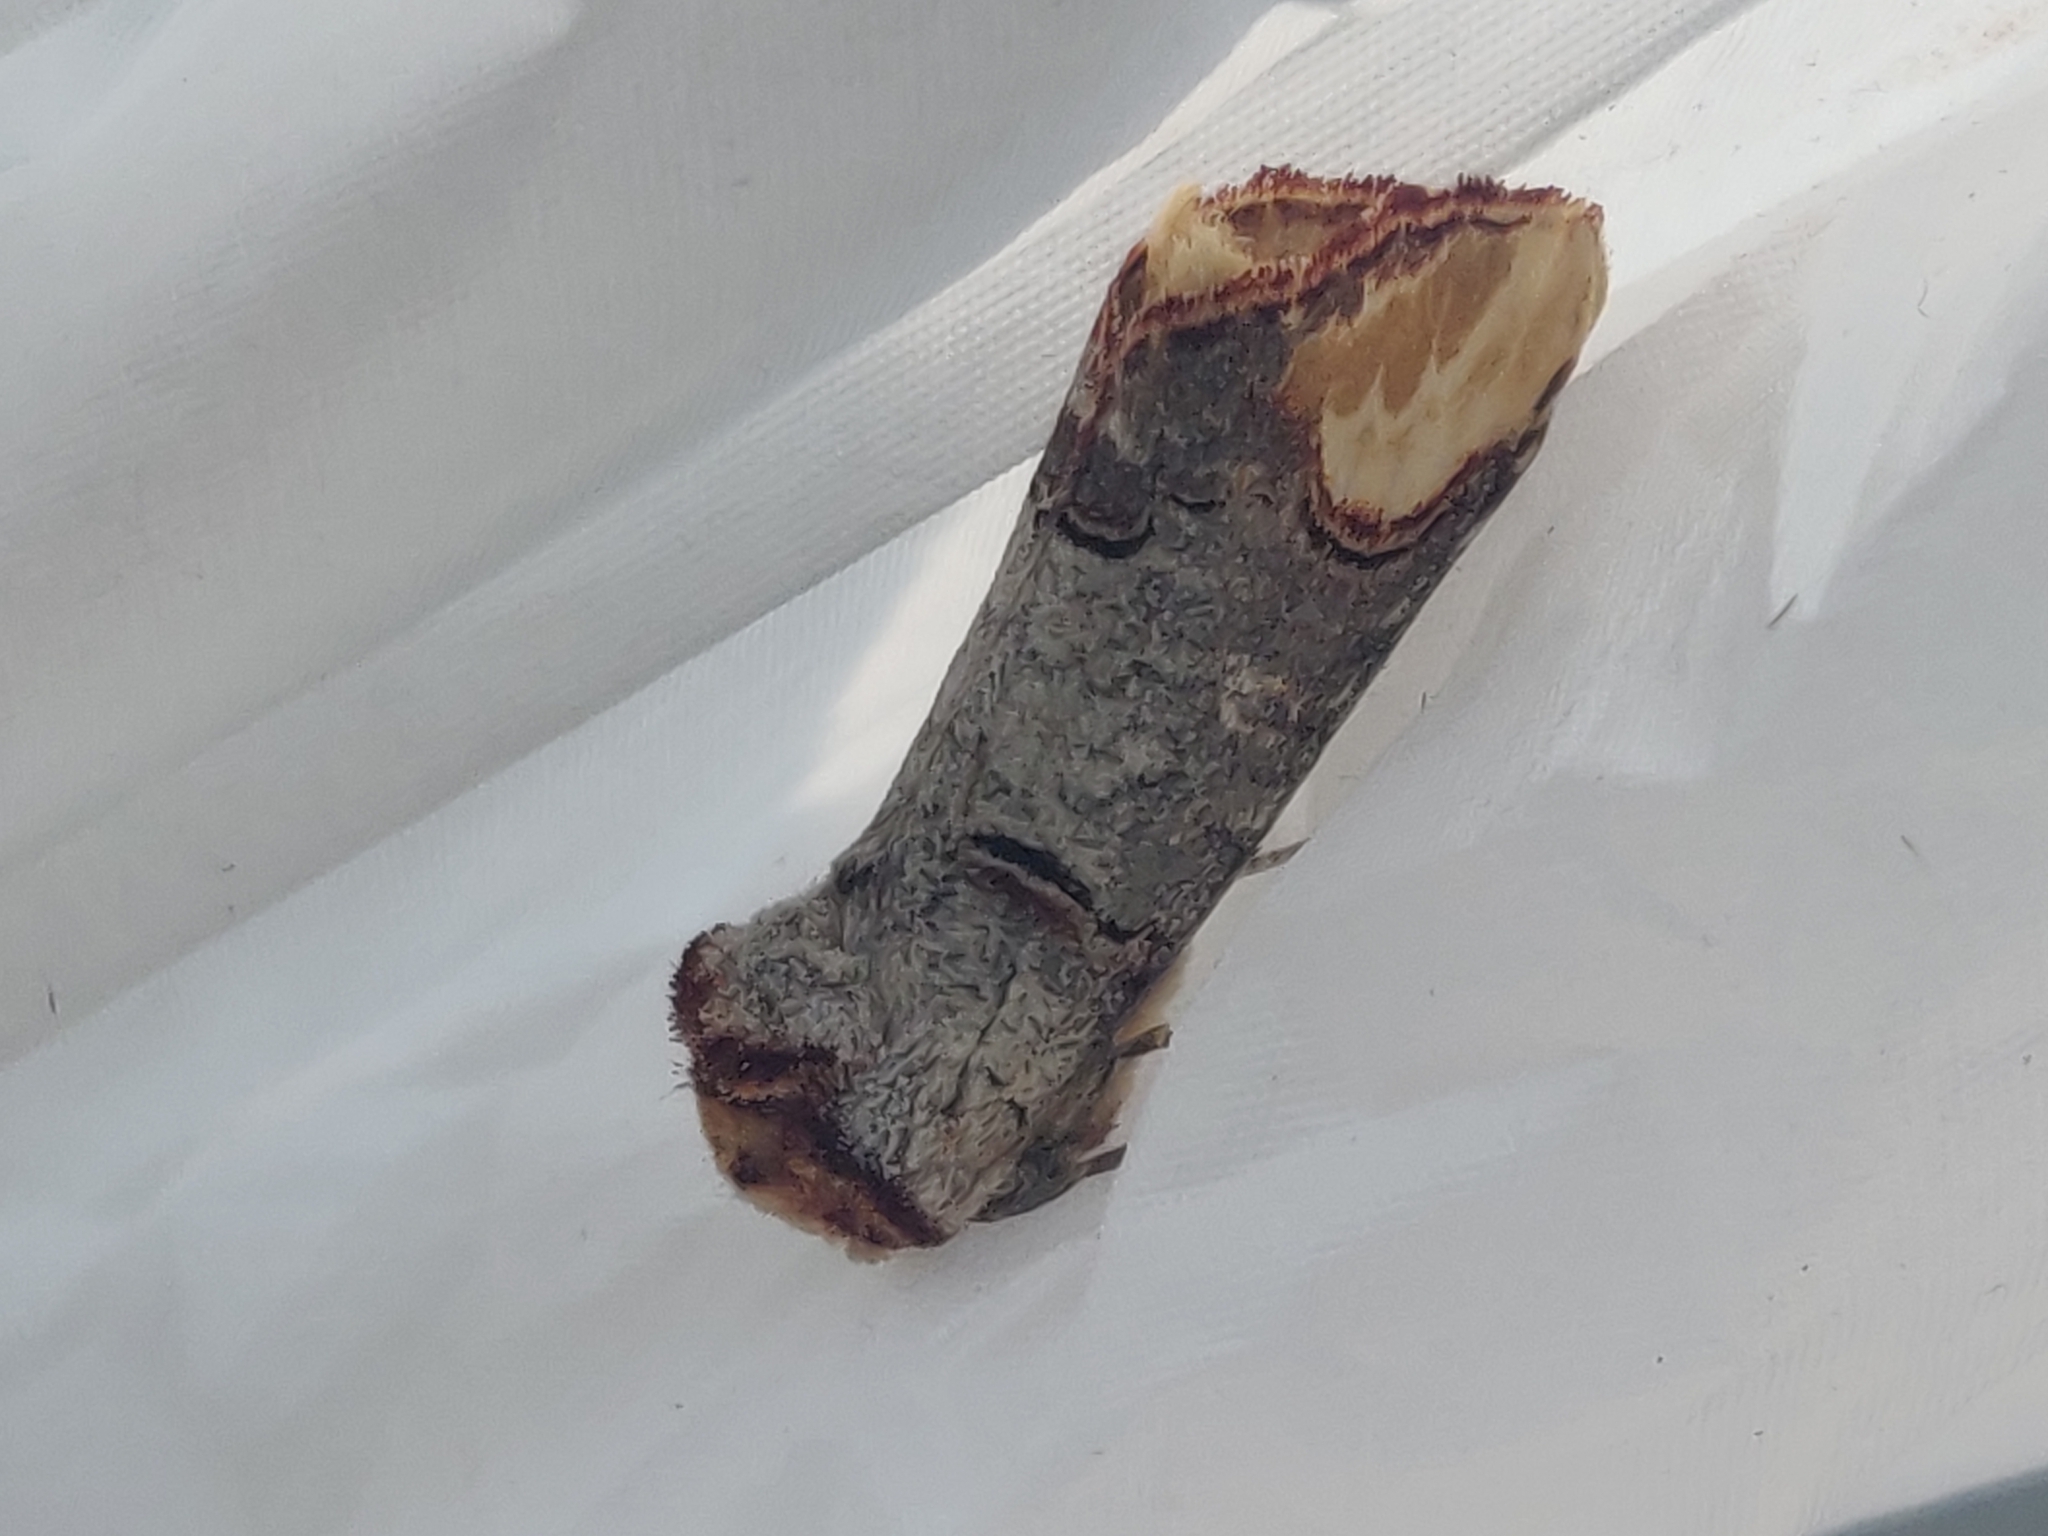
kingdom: Animalia
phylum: Arthropoda
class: Insecta
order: Lepidoptera
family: Notodontidae
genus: Phalera
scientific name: Phalera bucephala
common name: Buff-tip
